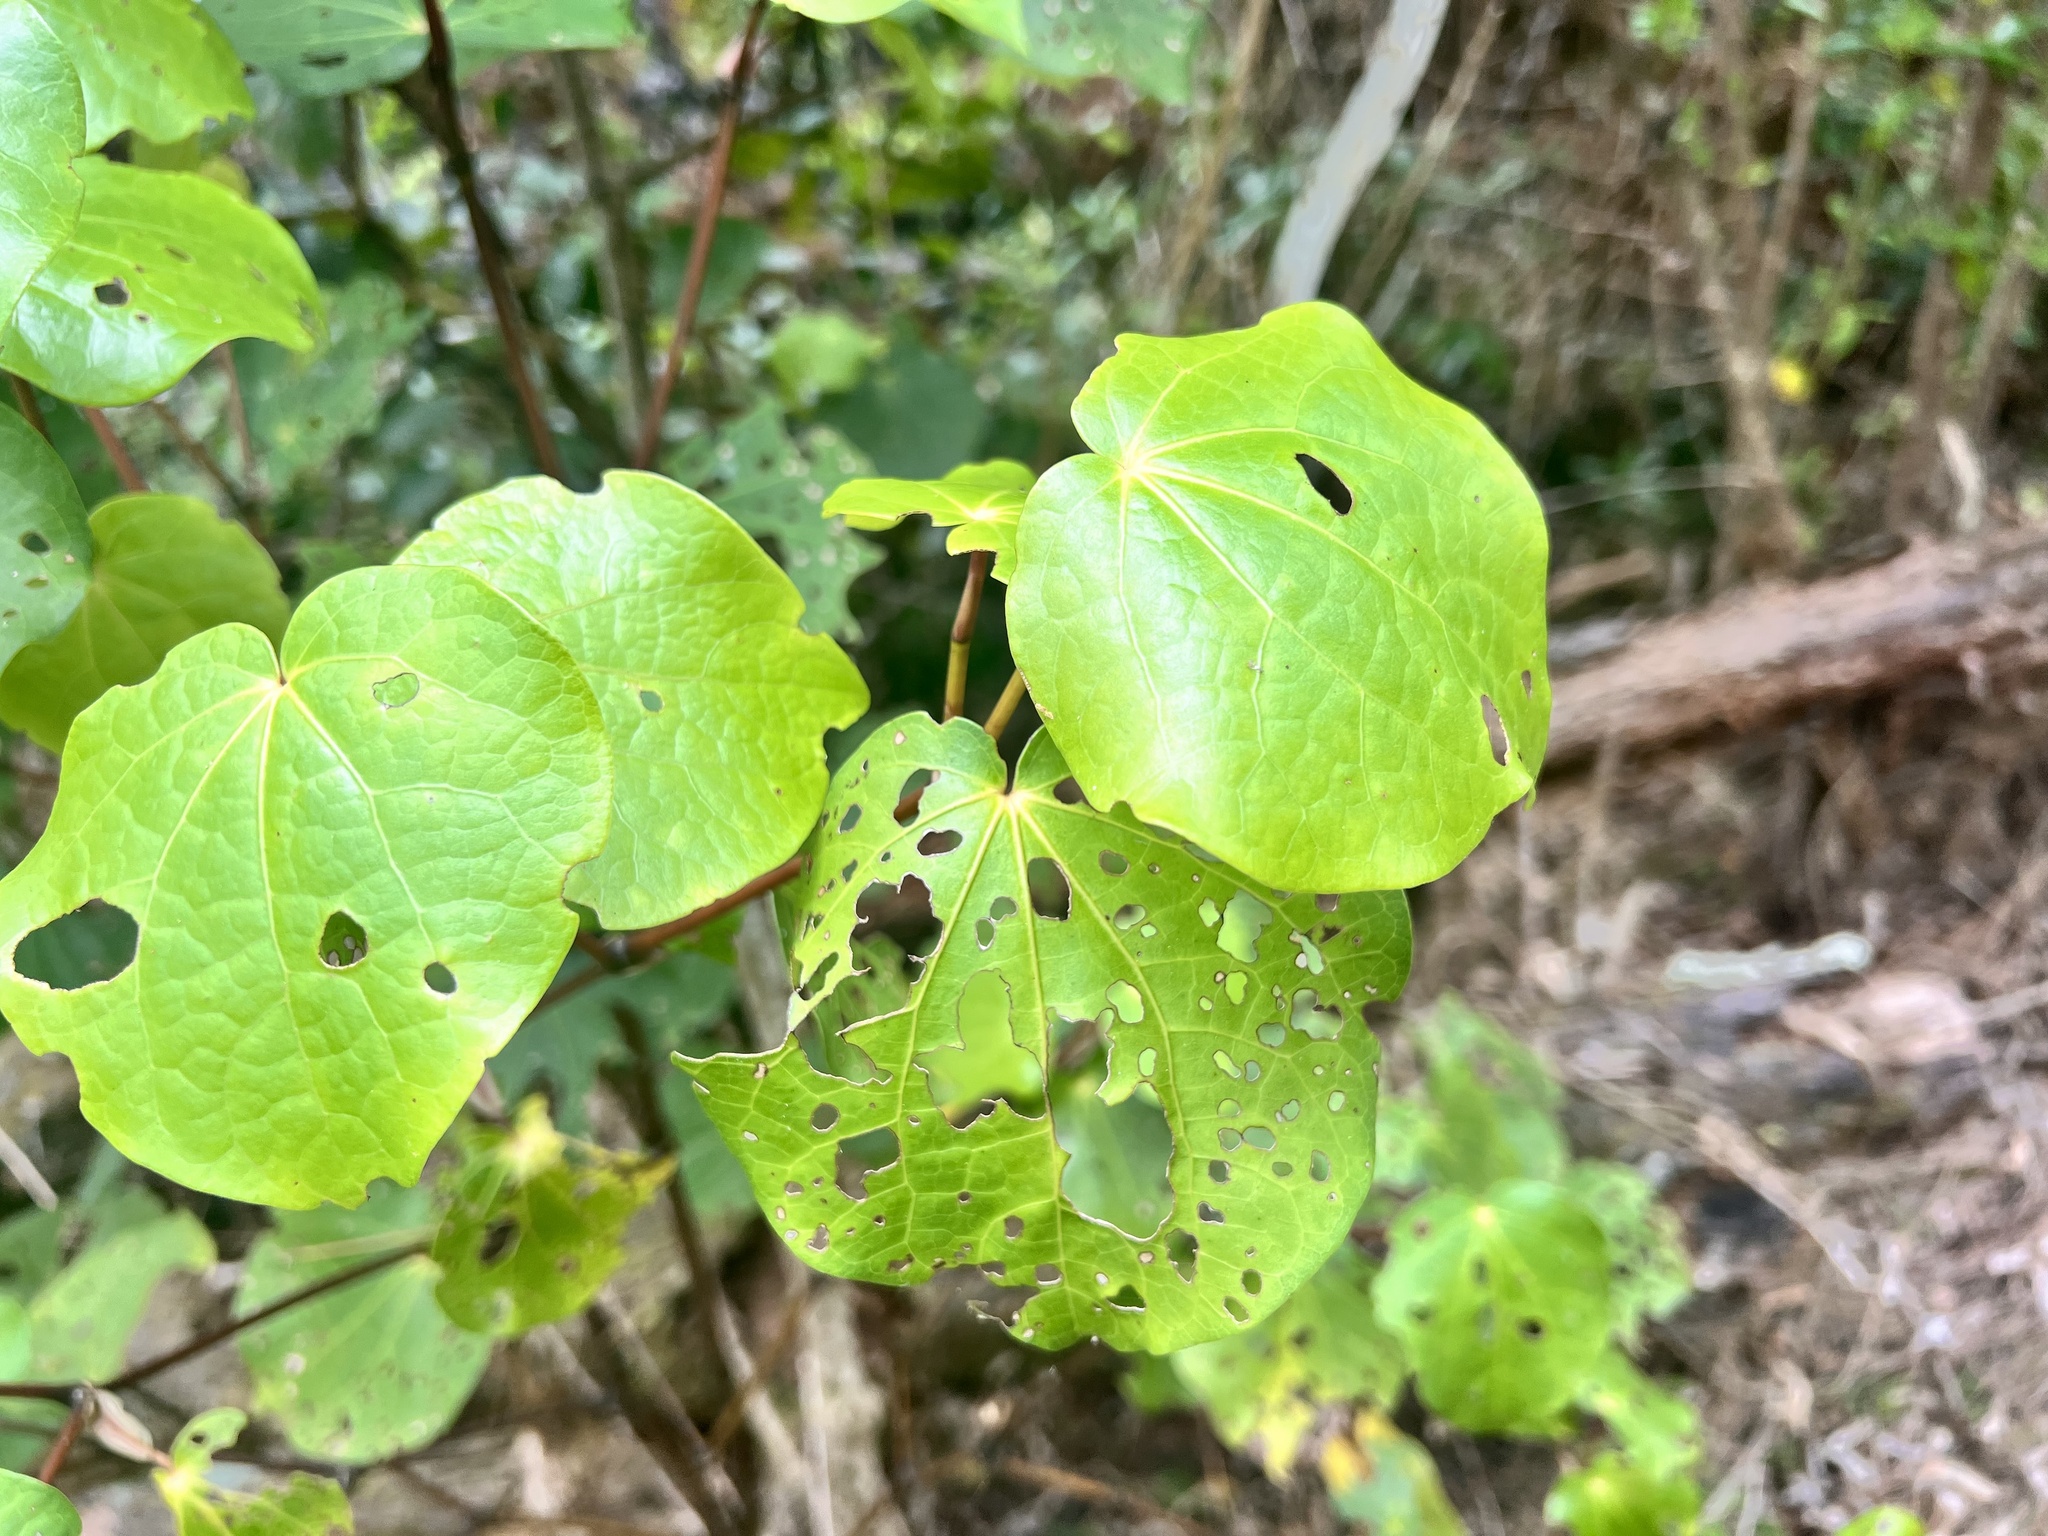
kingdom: Plantae
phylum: Tracheophyta
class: Magnoliopsida
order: Piperales
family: Piperaceae
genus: Macropiper
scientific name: Macropiper excelsum
